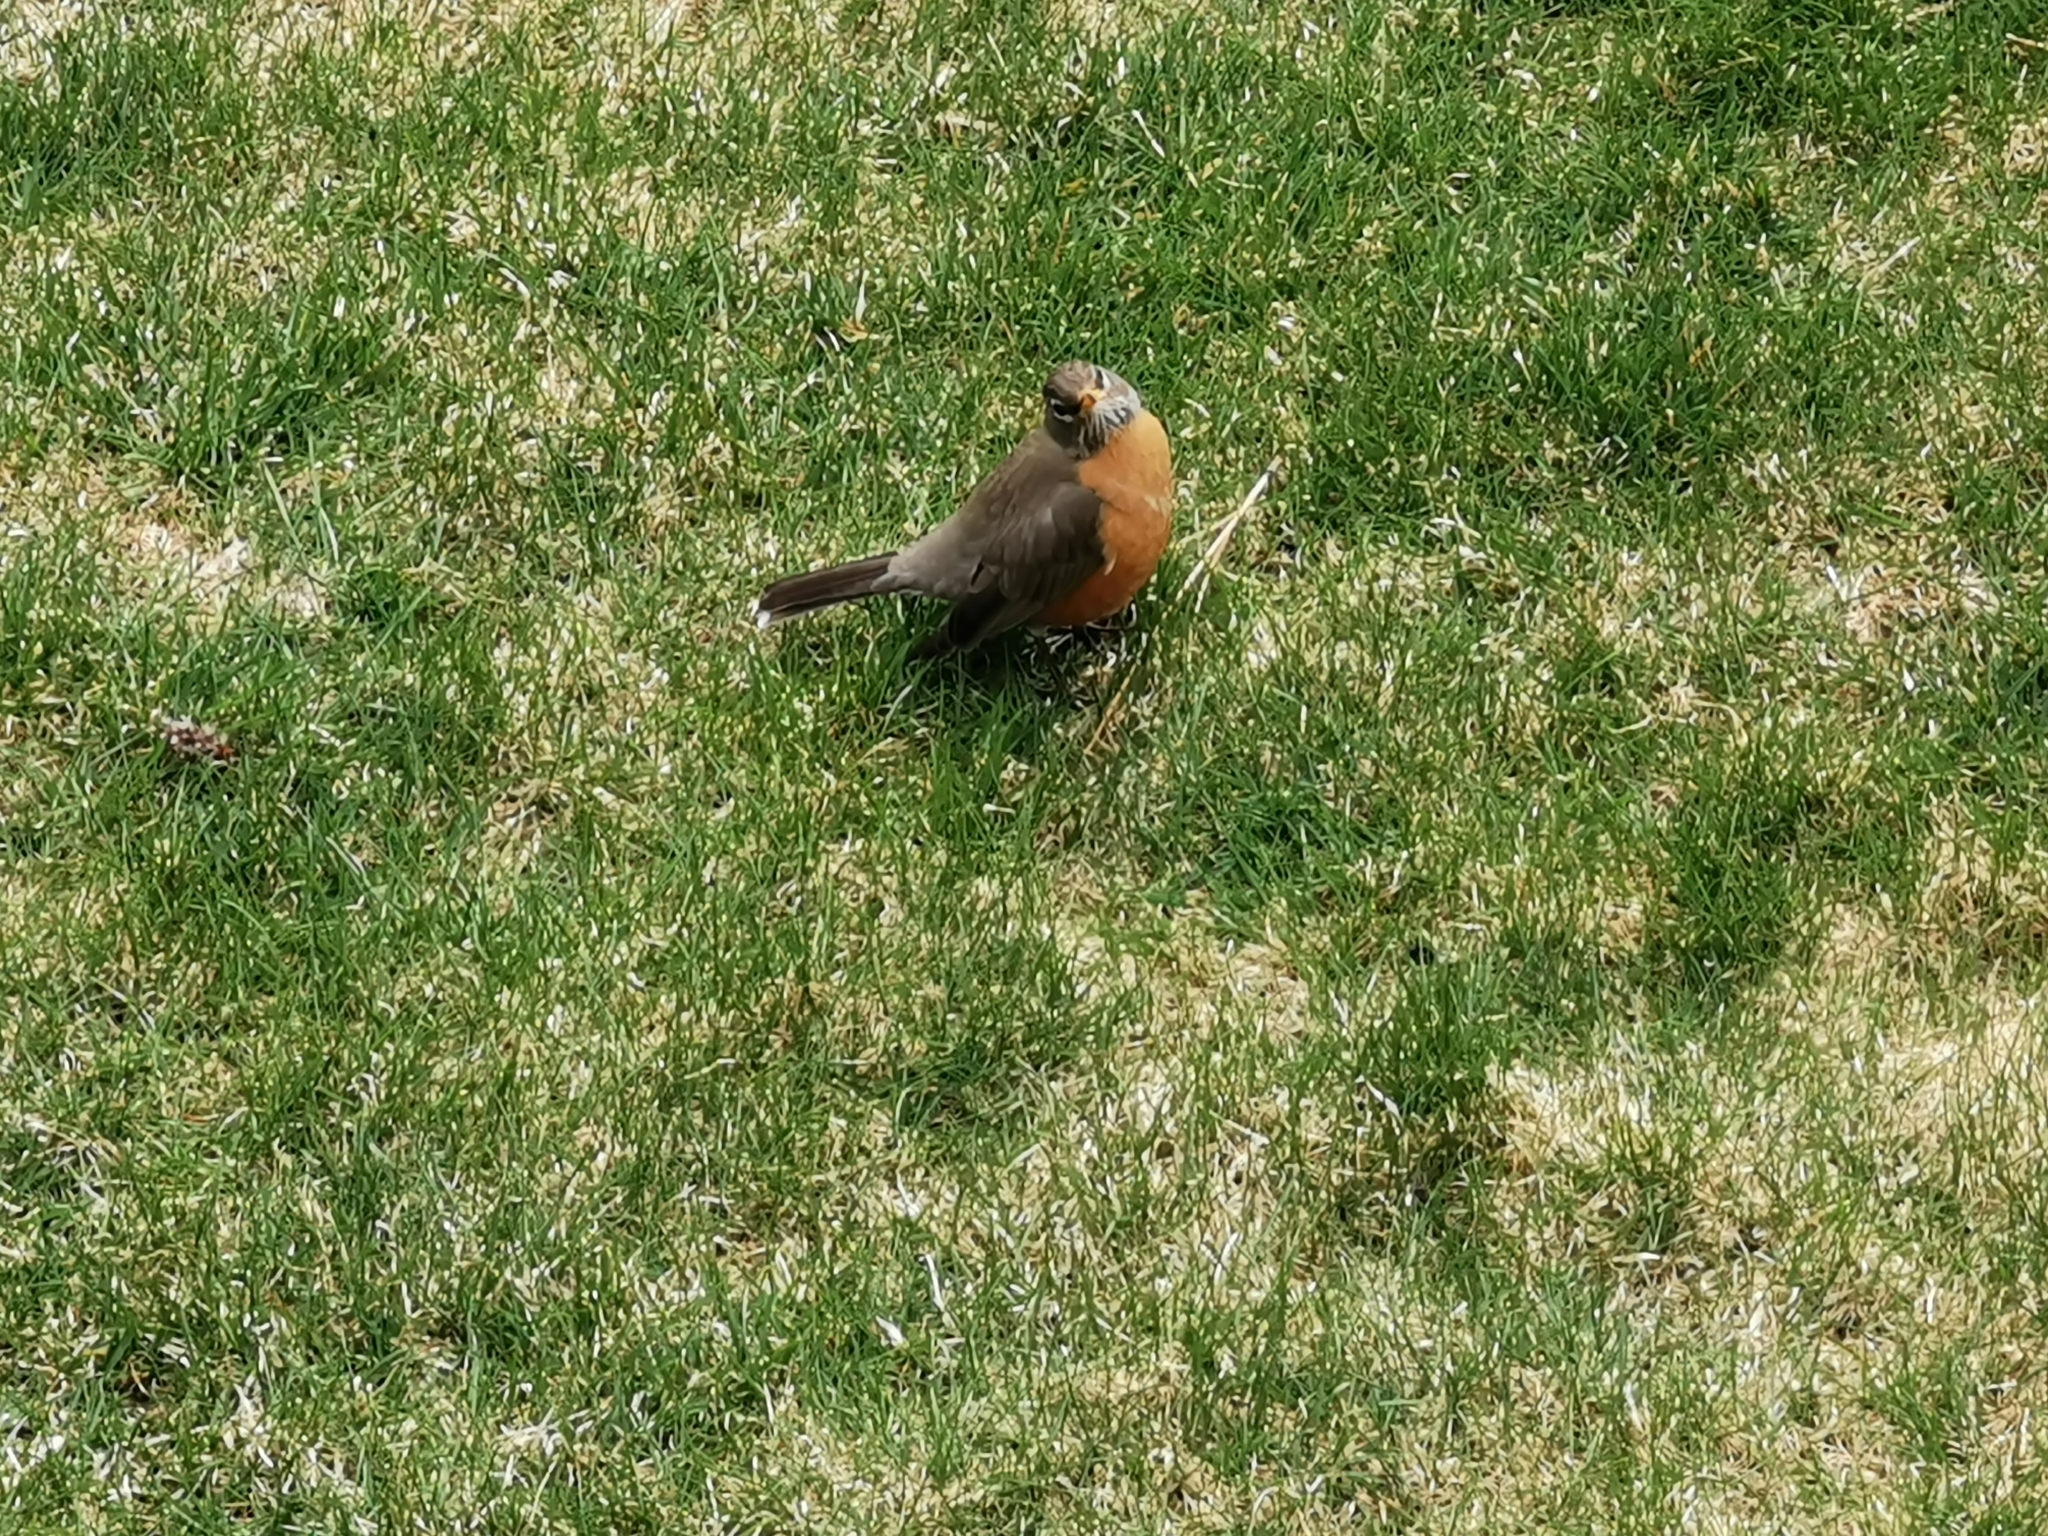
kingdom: Animalia
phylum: Chordata
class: Aves
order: Passeriformes
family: Turdidae
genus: Turdus
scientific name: Turdus migratorius
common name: American robin
